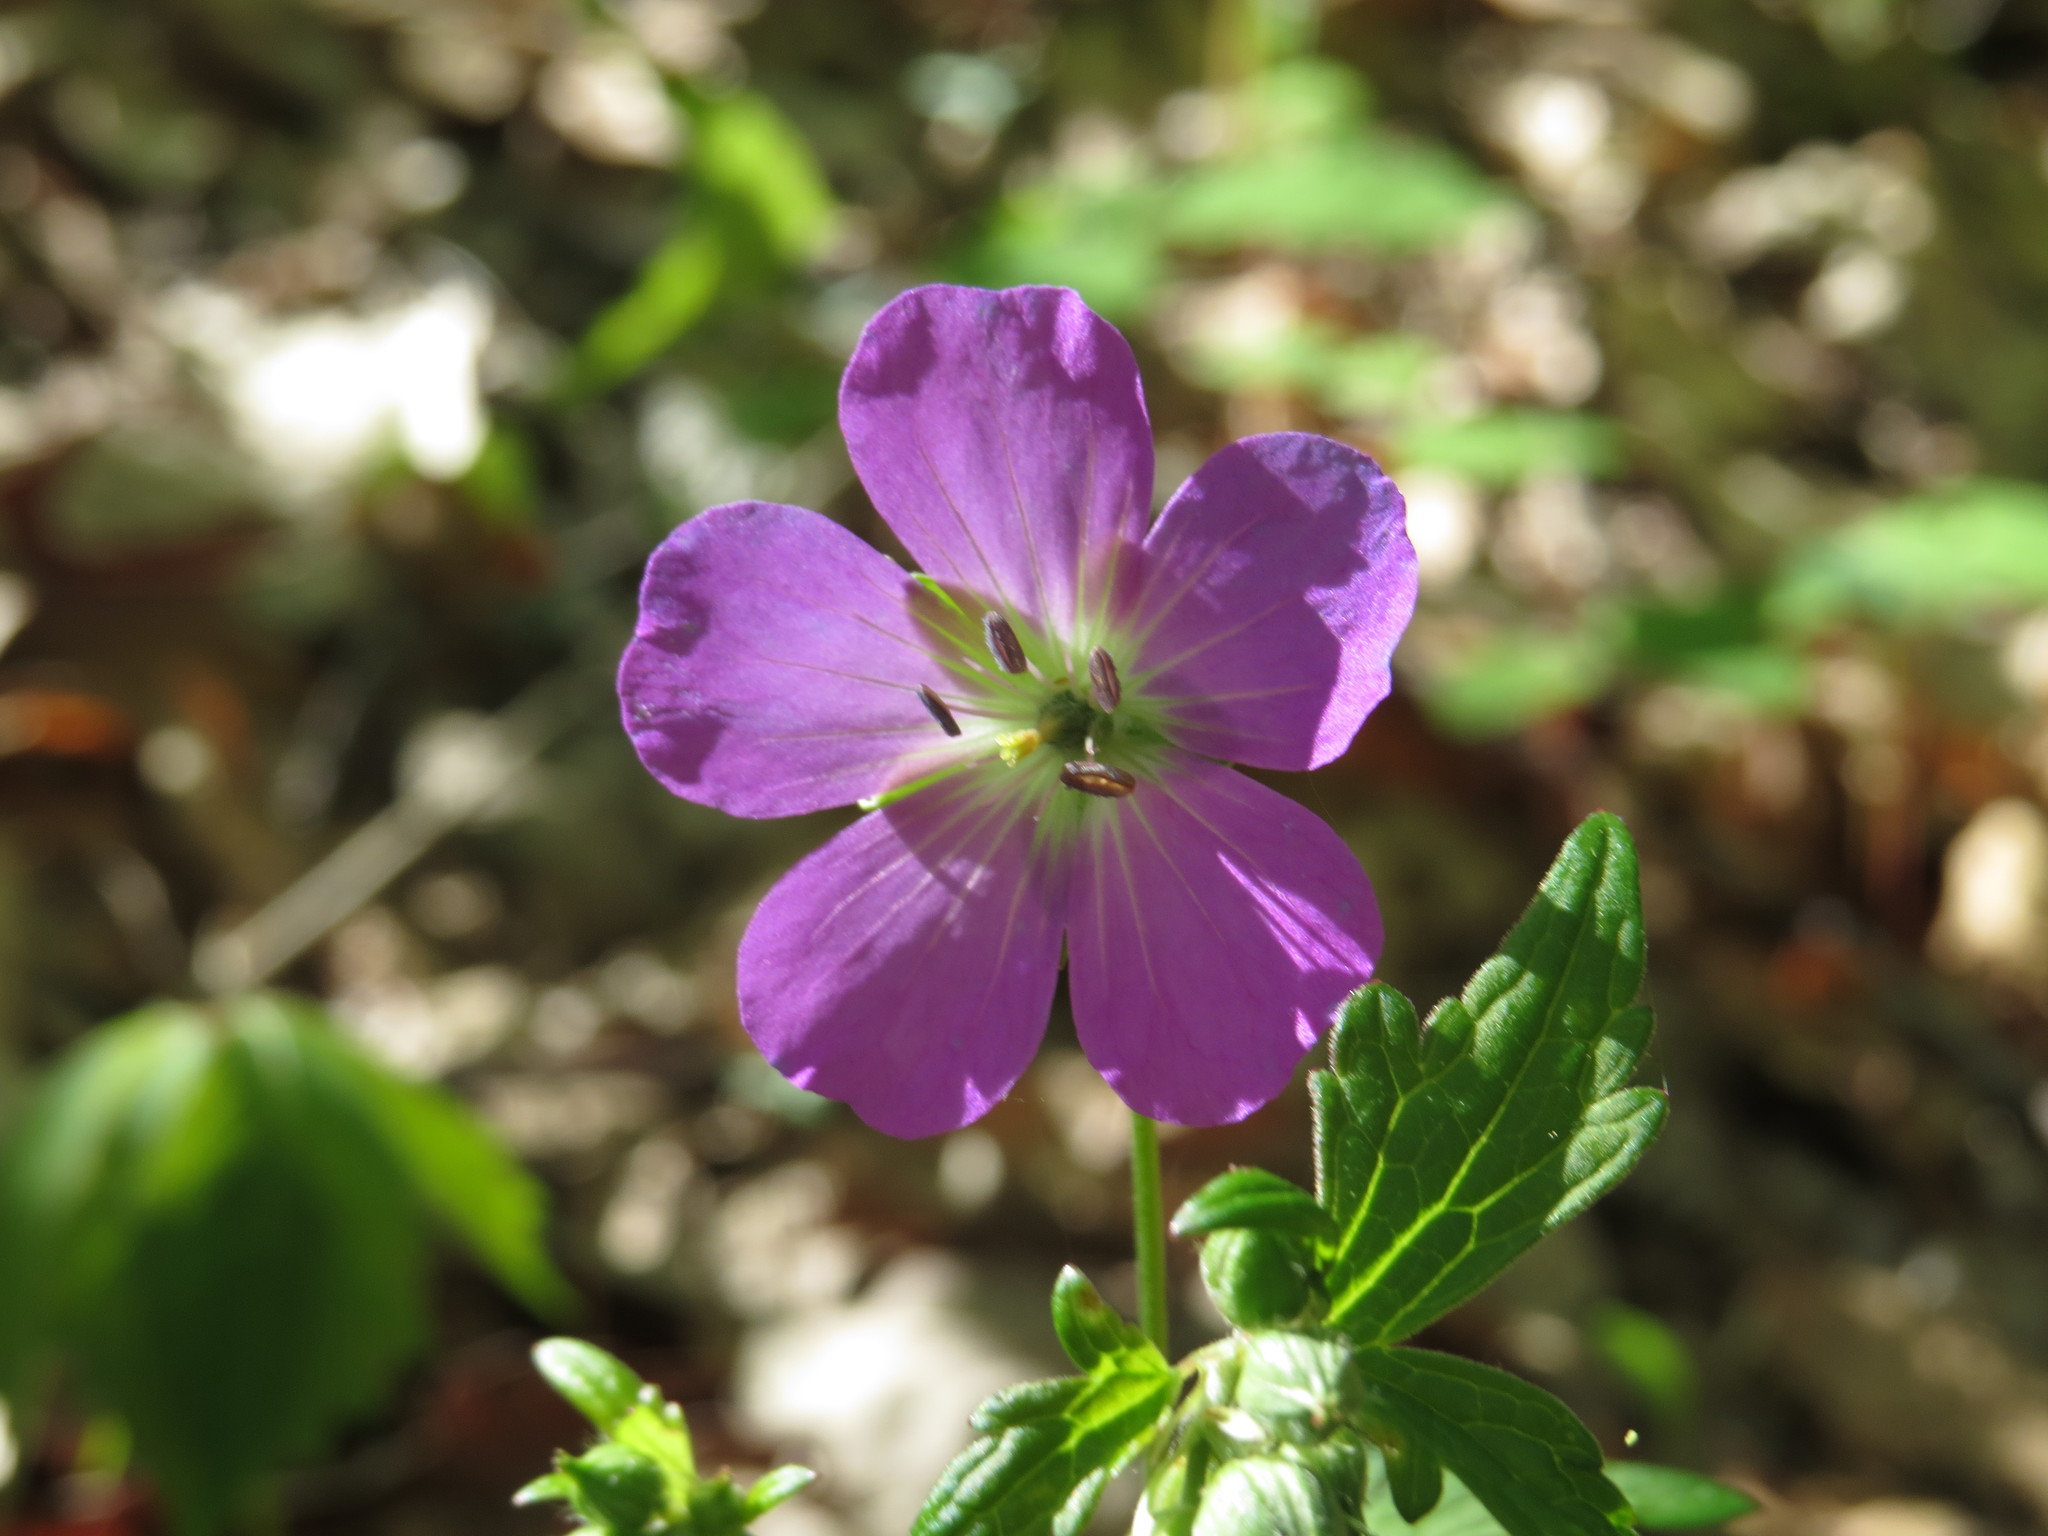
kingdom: Plantae
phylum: Tracheophyta
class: Magnoliopsida
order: Geraniales
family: Geraniaceae
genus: Geranium
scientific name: Geranium maculatum
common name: Spotted geranium
